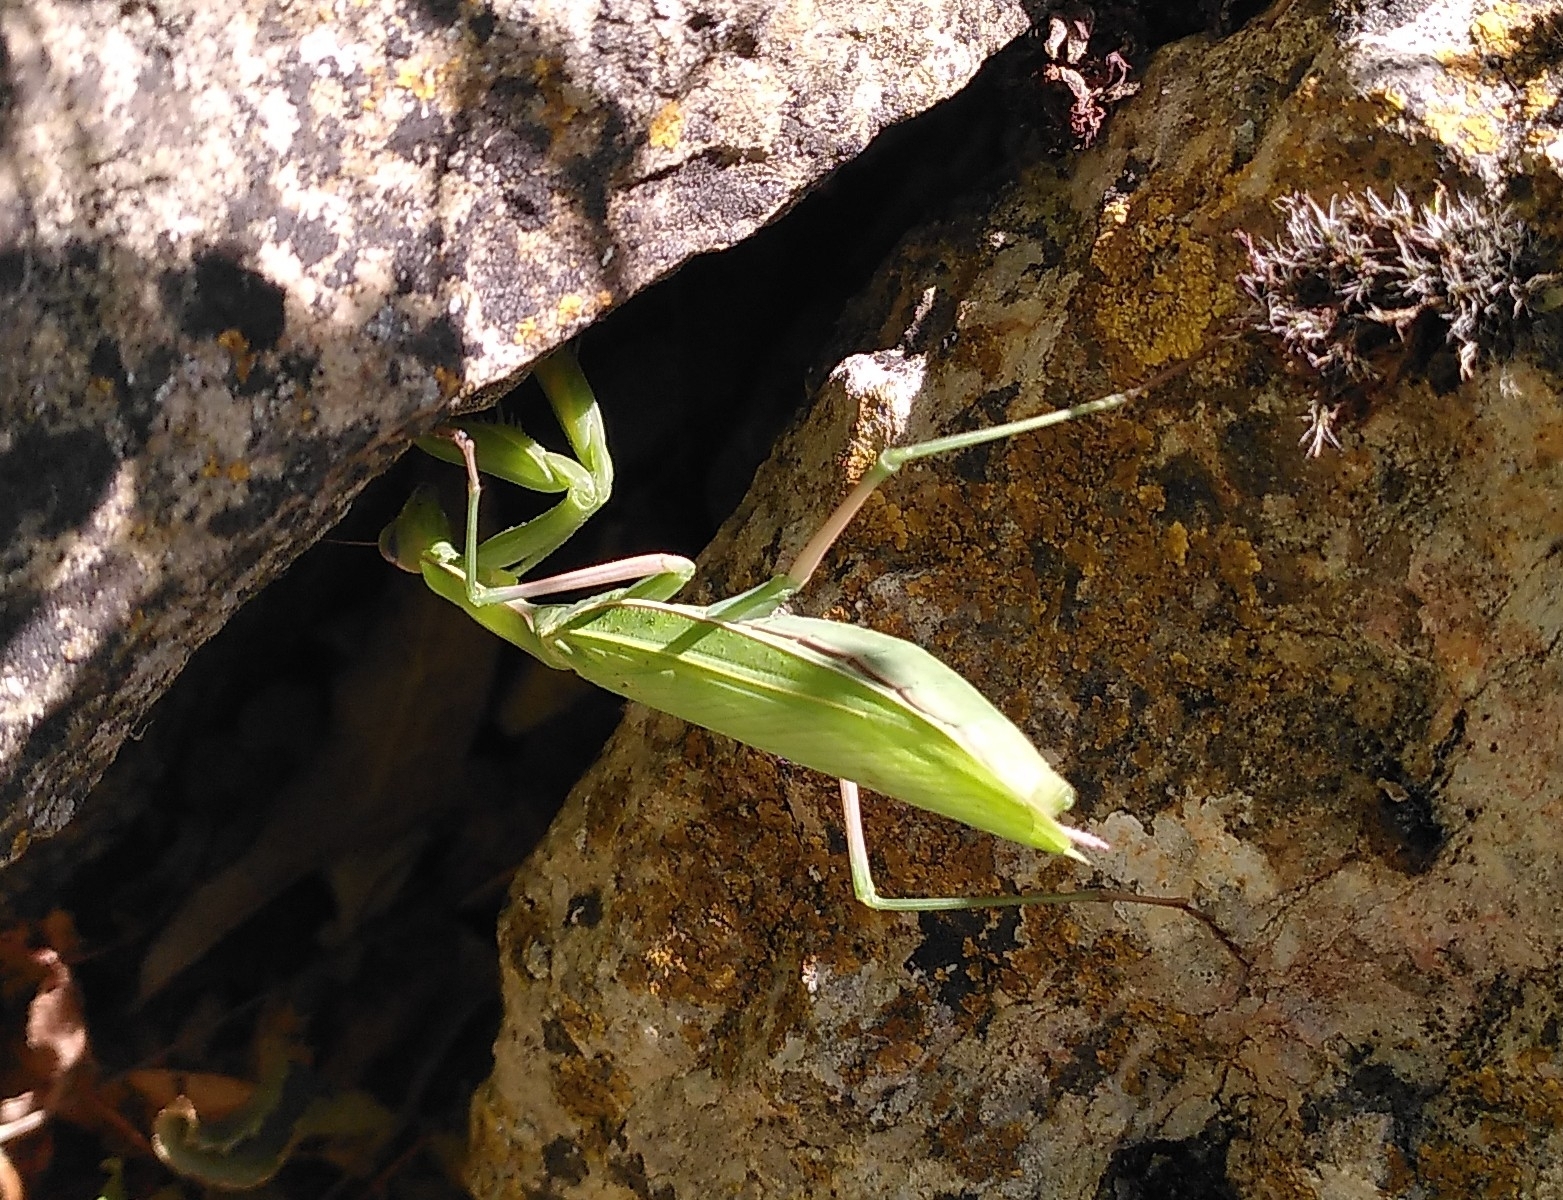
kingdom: Animalia
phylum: Arthropoda
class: Insecta
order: Mantodea
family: Mantidae
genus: Mantis
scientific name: Mantis religiosa
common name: Praying mantis
